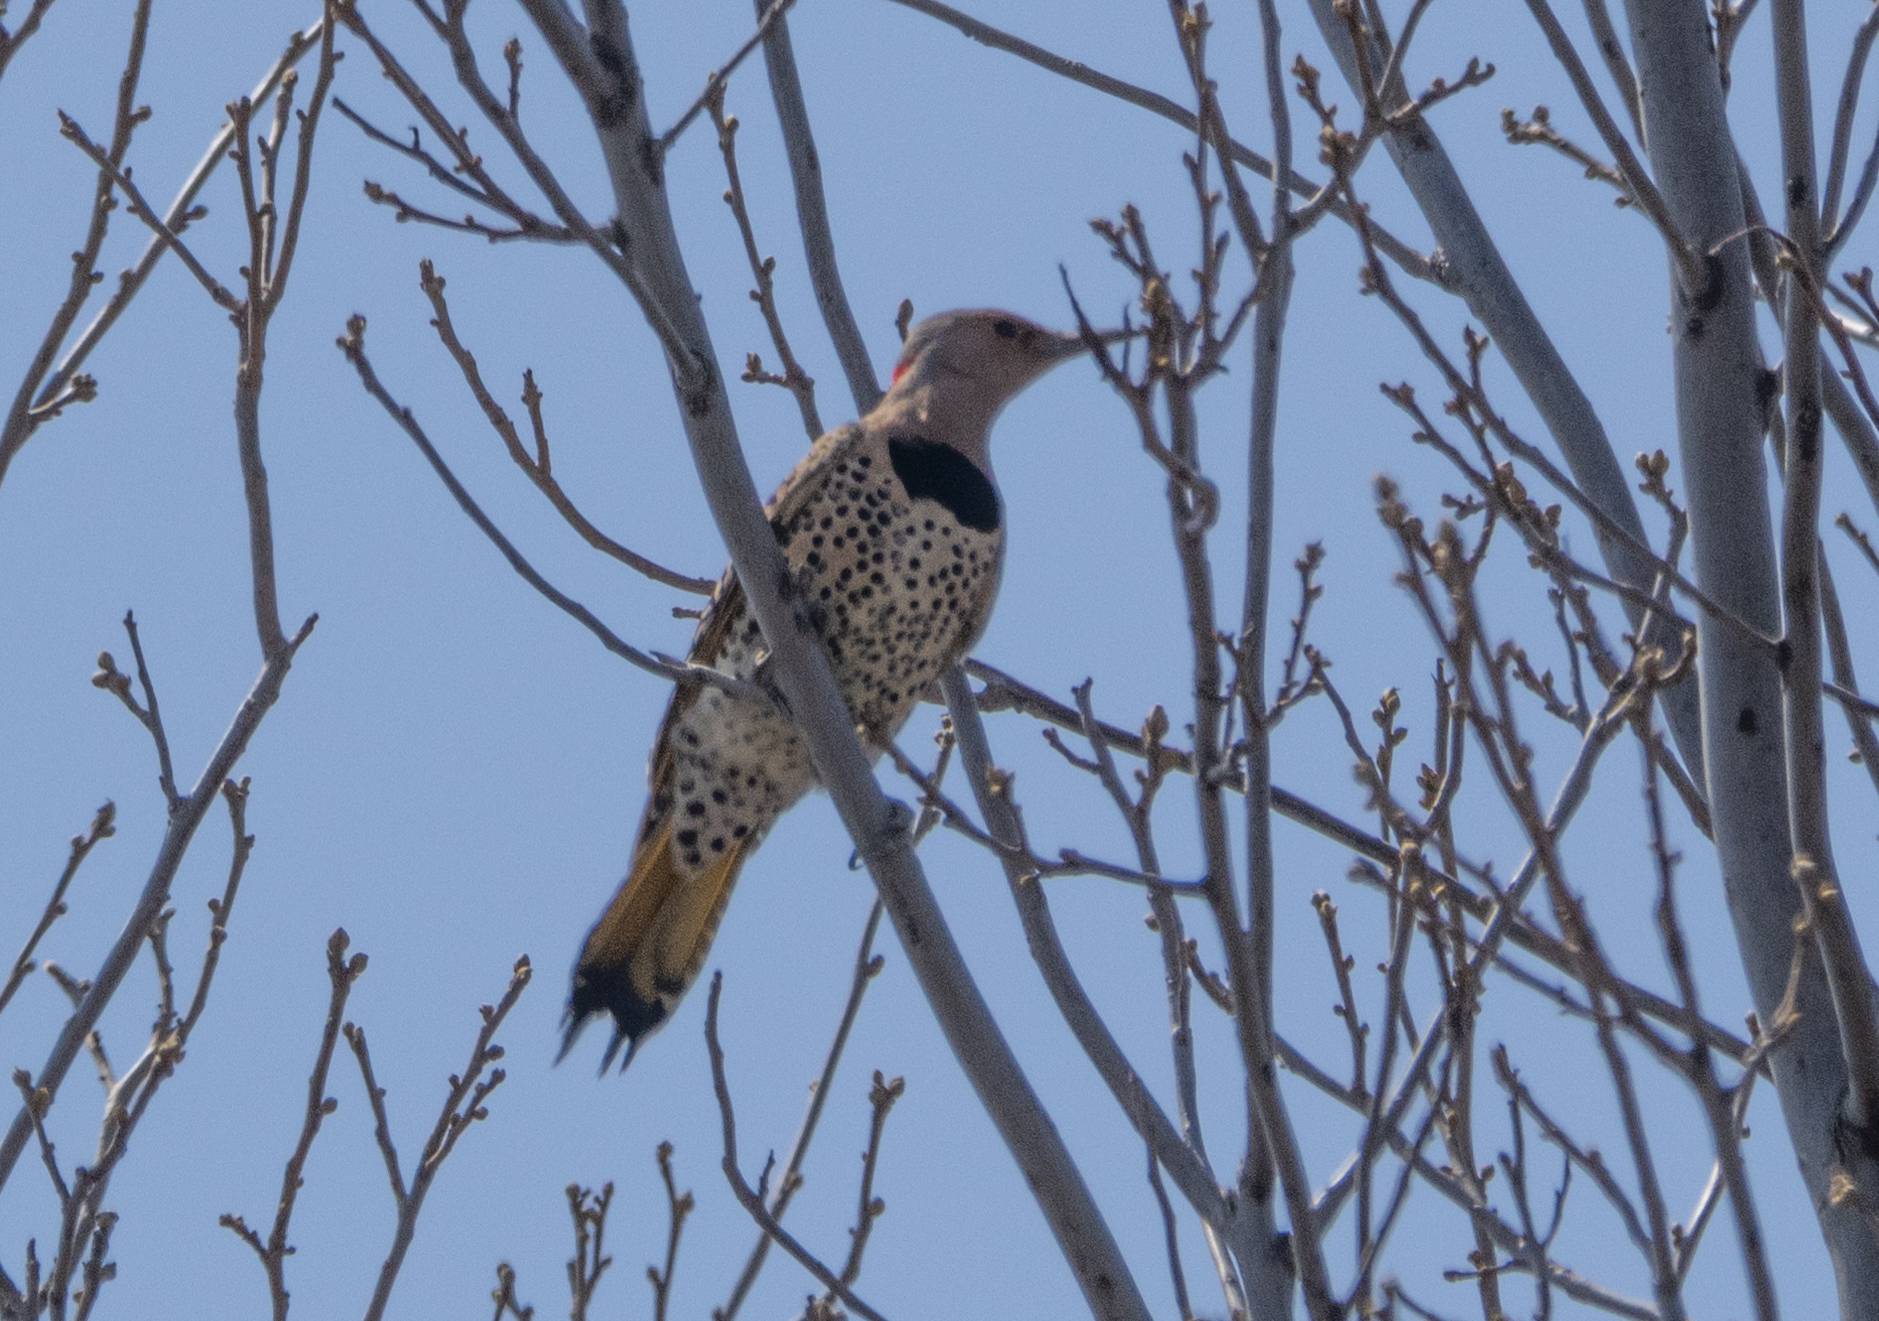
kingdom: Animalia
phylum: Chordata
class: Aves
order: Piciformes
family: Picidae
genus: Colaptes
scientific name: Colaptes auratus
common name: Northern flicker
